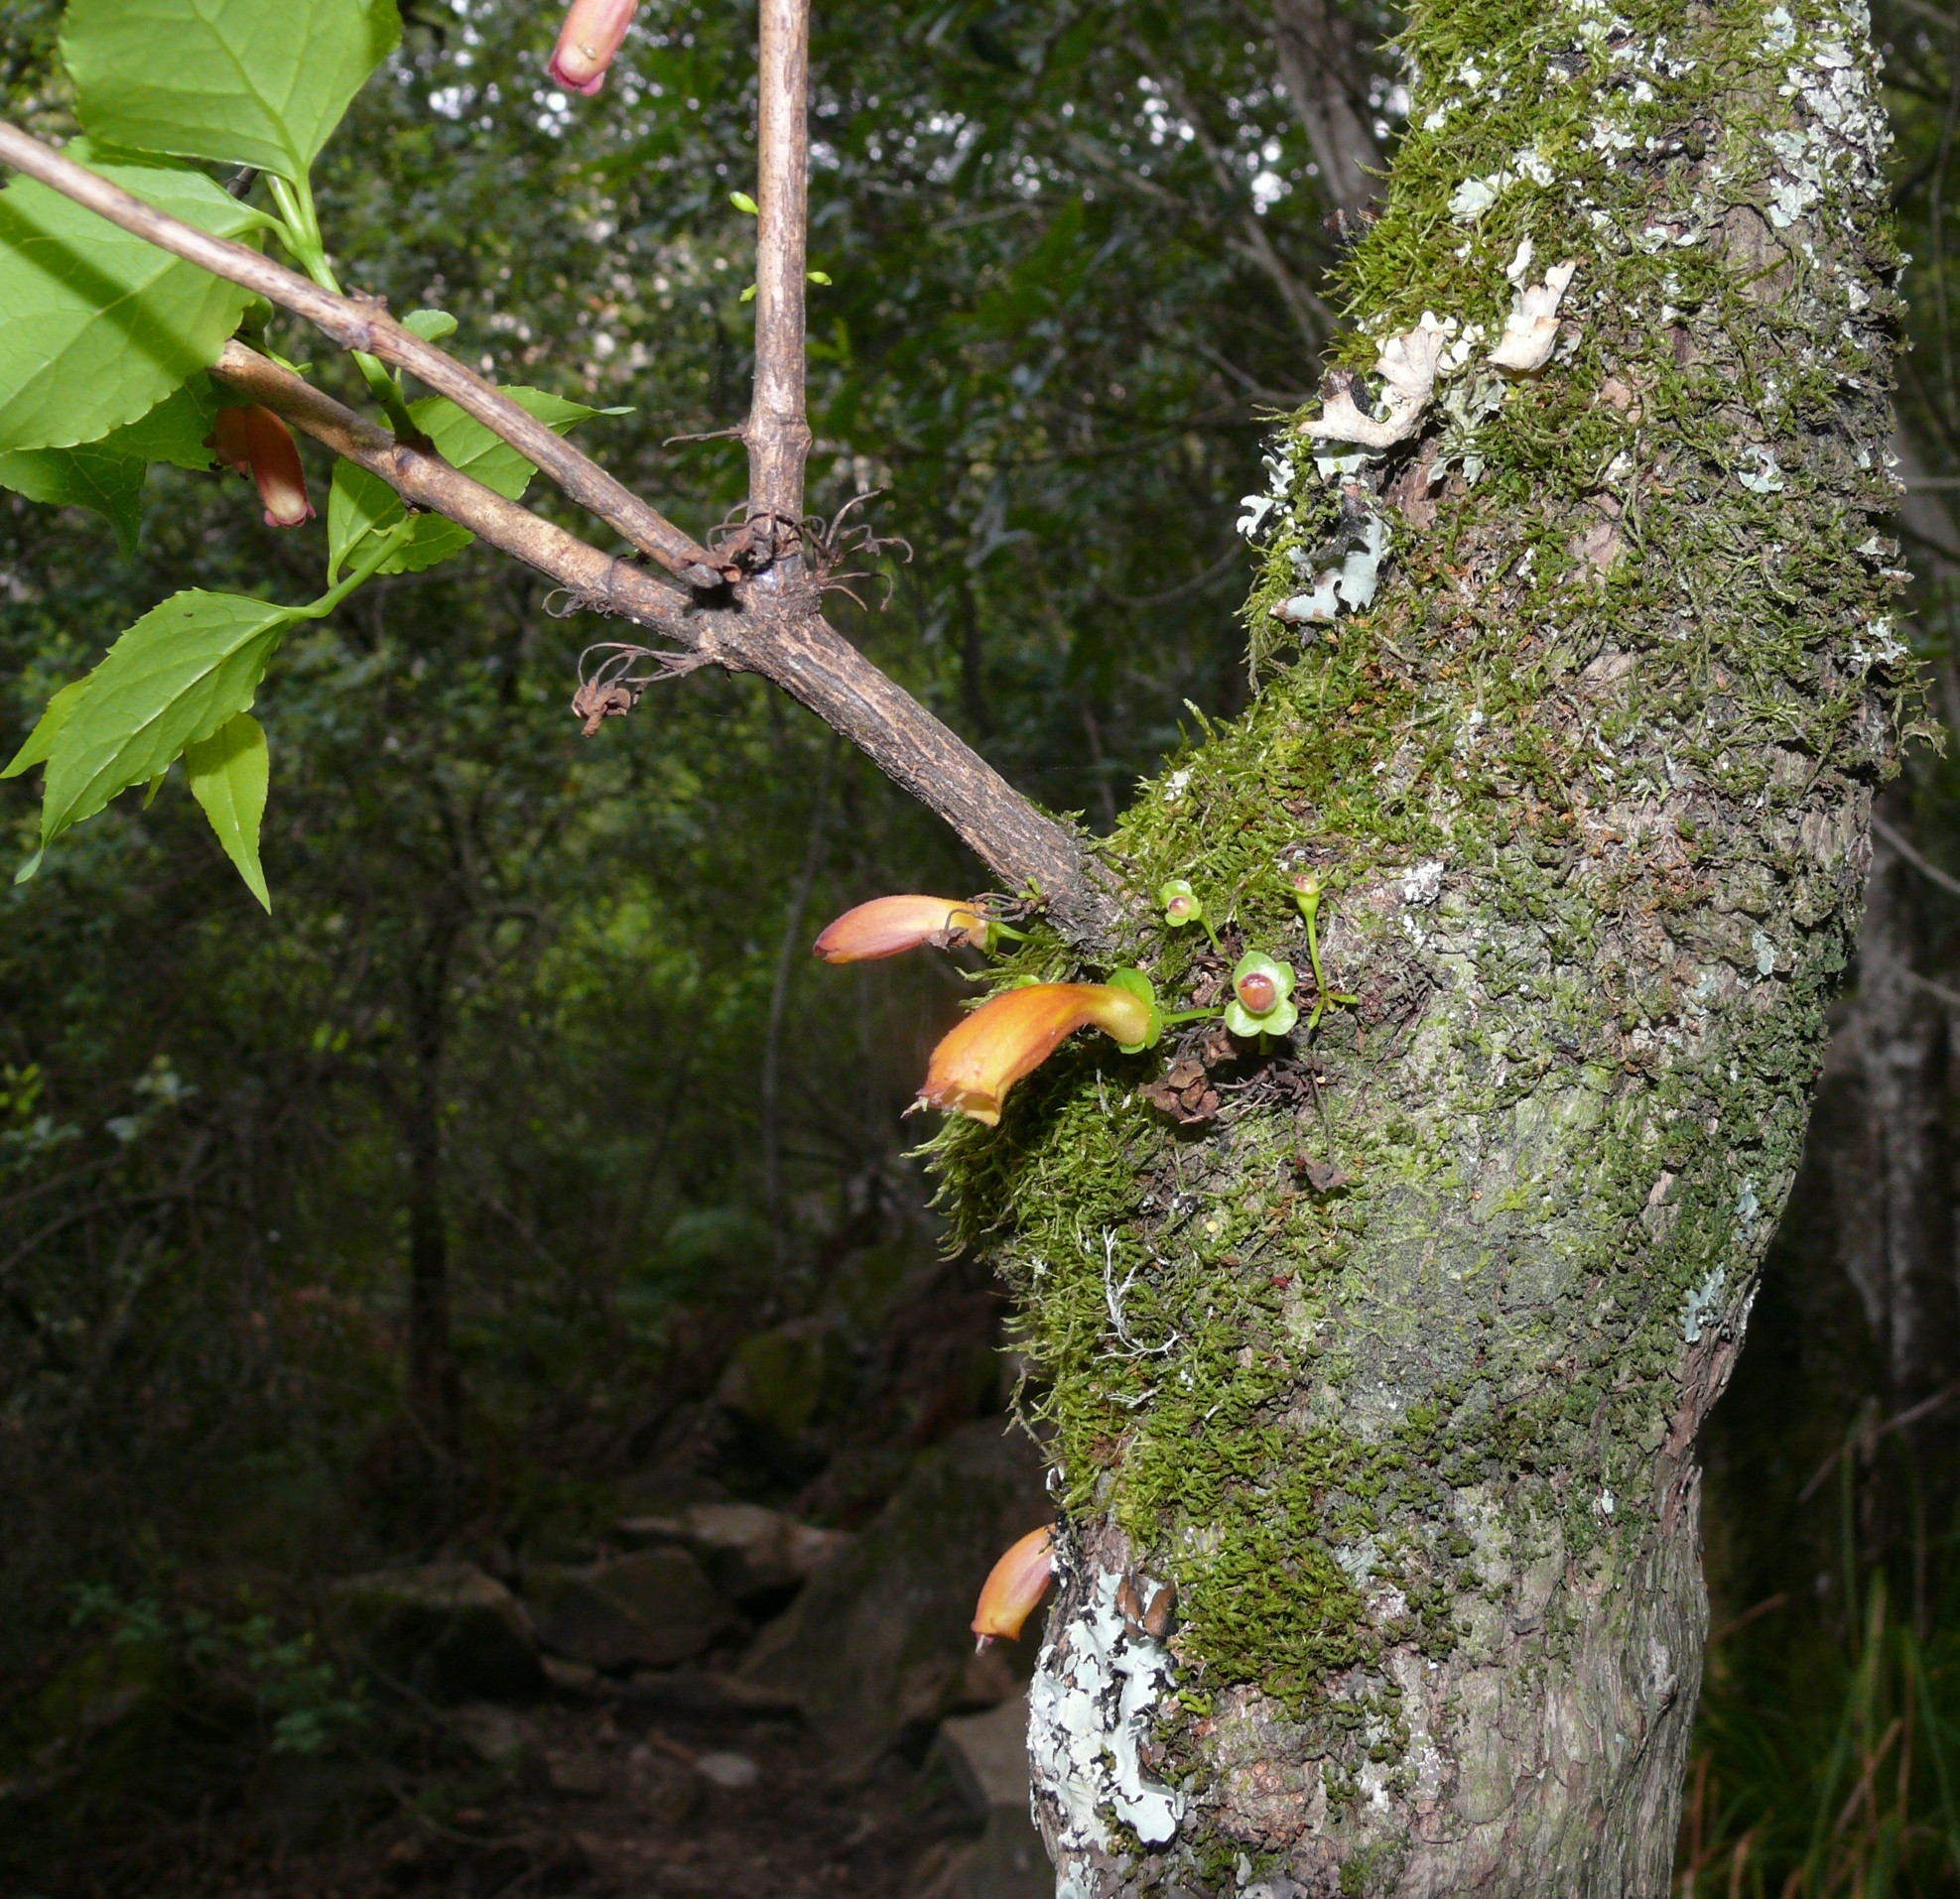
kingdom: Plantae
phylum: Tracheophyta
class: Magnoliopsida
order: Lamiales
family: Stilbaceae
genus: Halleria
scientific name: Halleria lucida
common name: Tree fuschia
